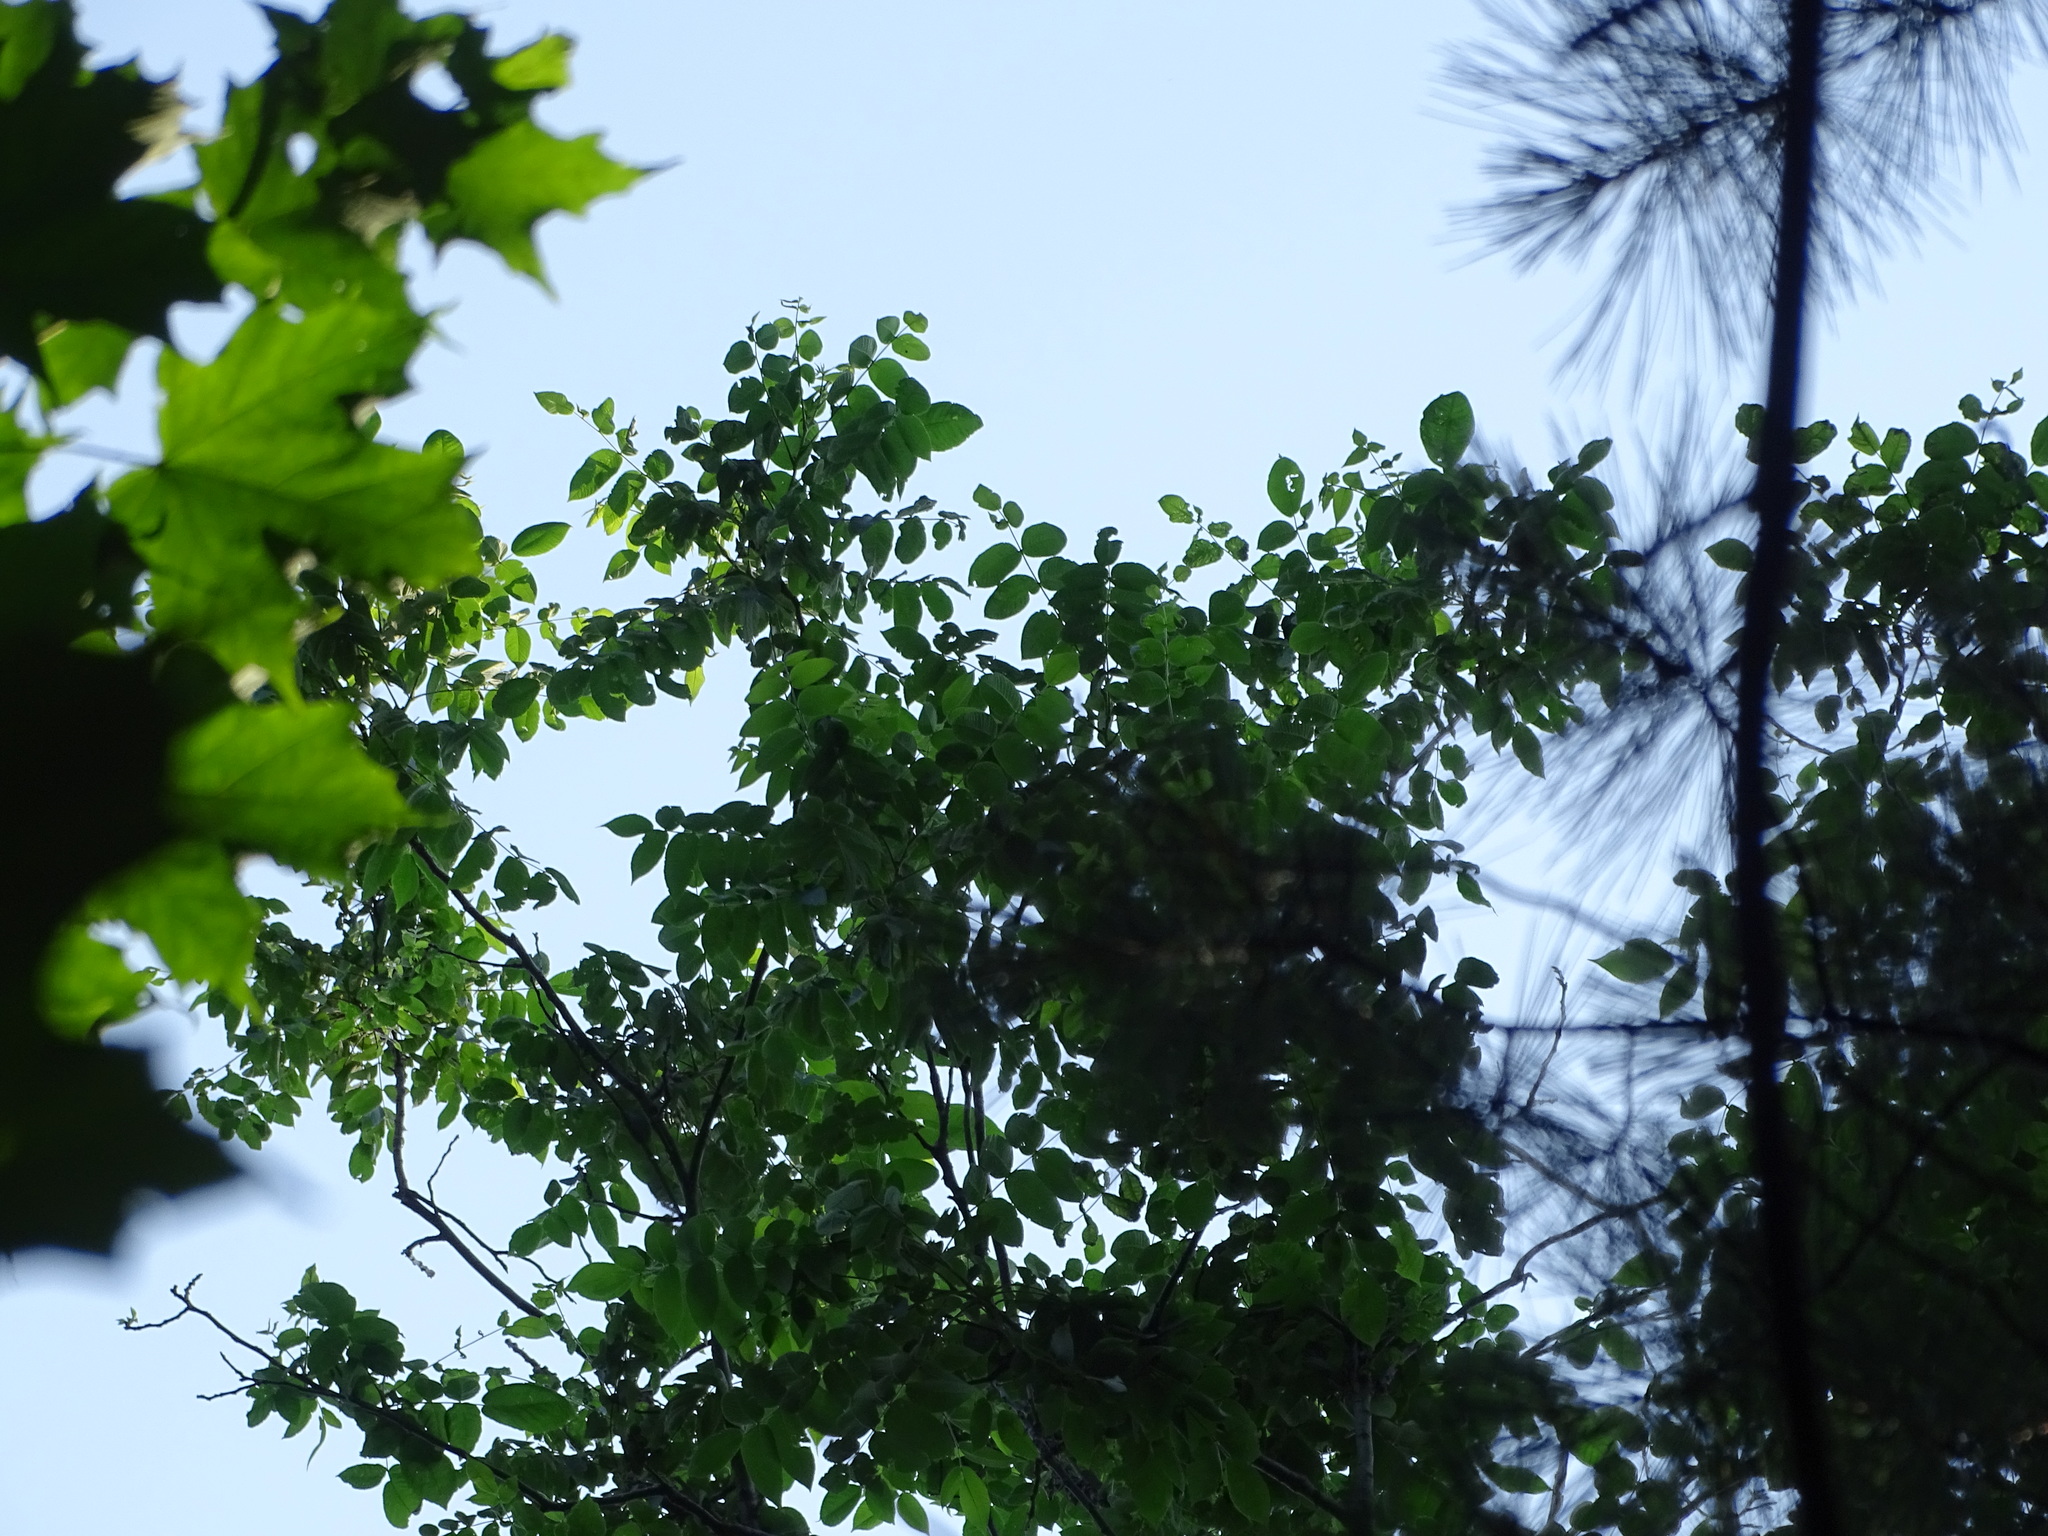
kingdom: Plantae
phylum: Tracheophyta
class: Magnoliopsida
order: Fagales
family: Juglandaceae
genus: Juglans
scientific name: Juglans cinerea
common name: Butternut
